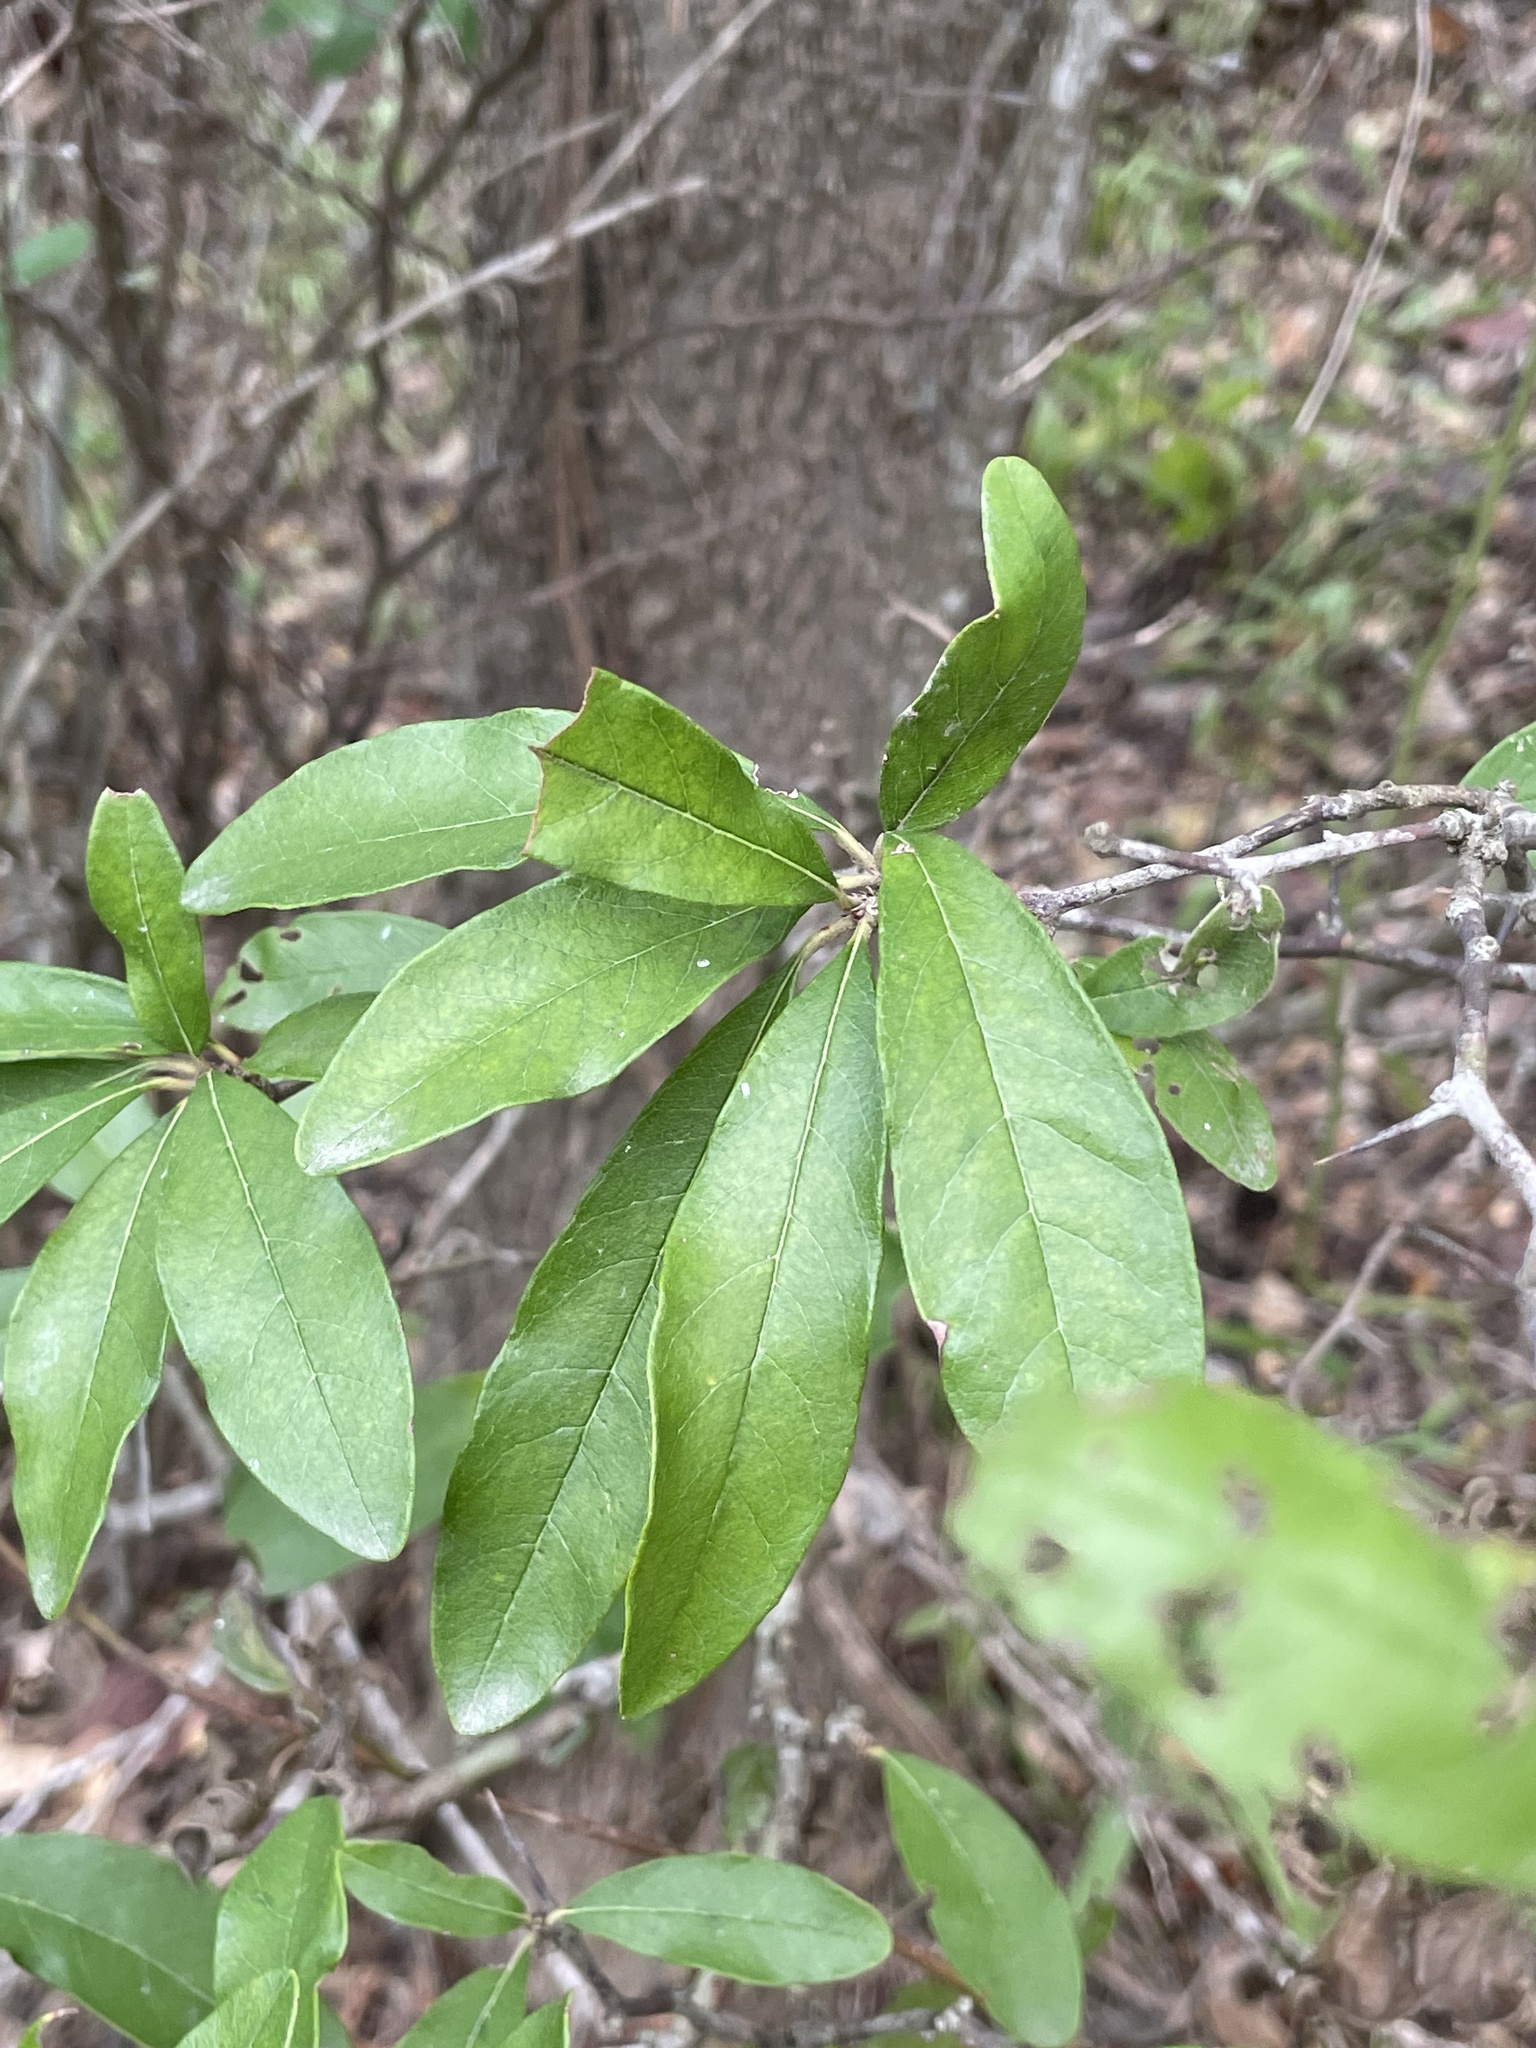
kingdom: Plantae
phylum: Tracheophyta
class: Magnoliopsida
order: Ericales
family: Sapotaceae
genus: Sideroxylon
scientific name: Sideroxylon lanuginosum
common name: Chittamwood
